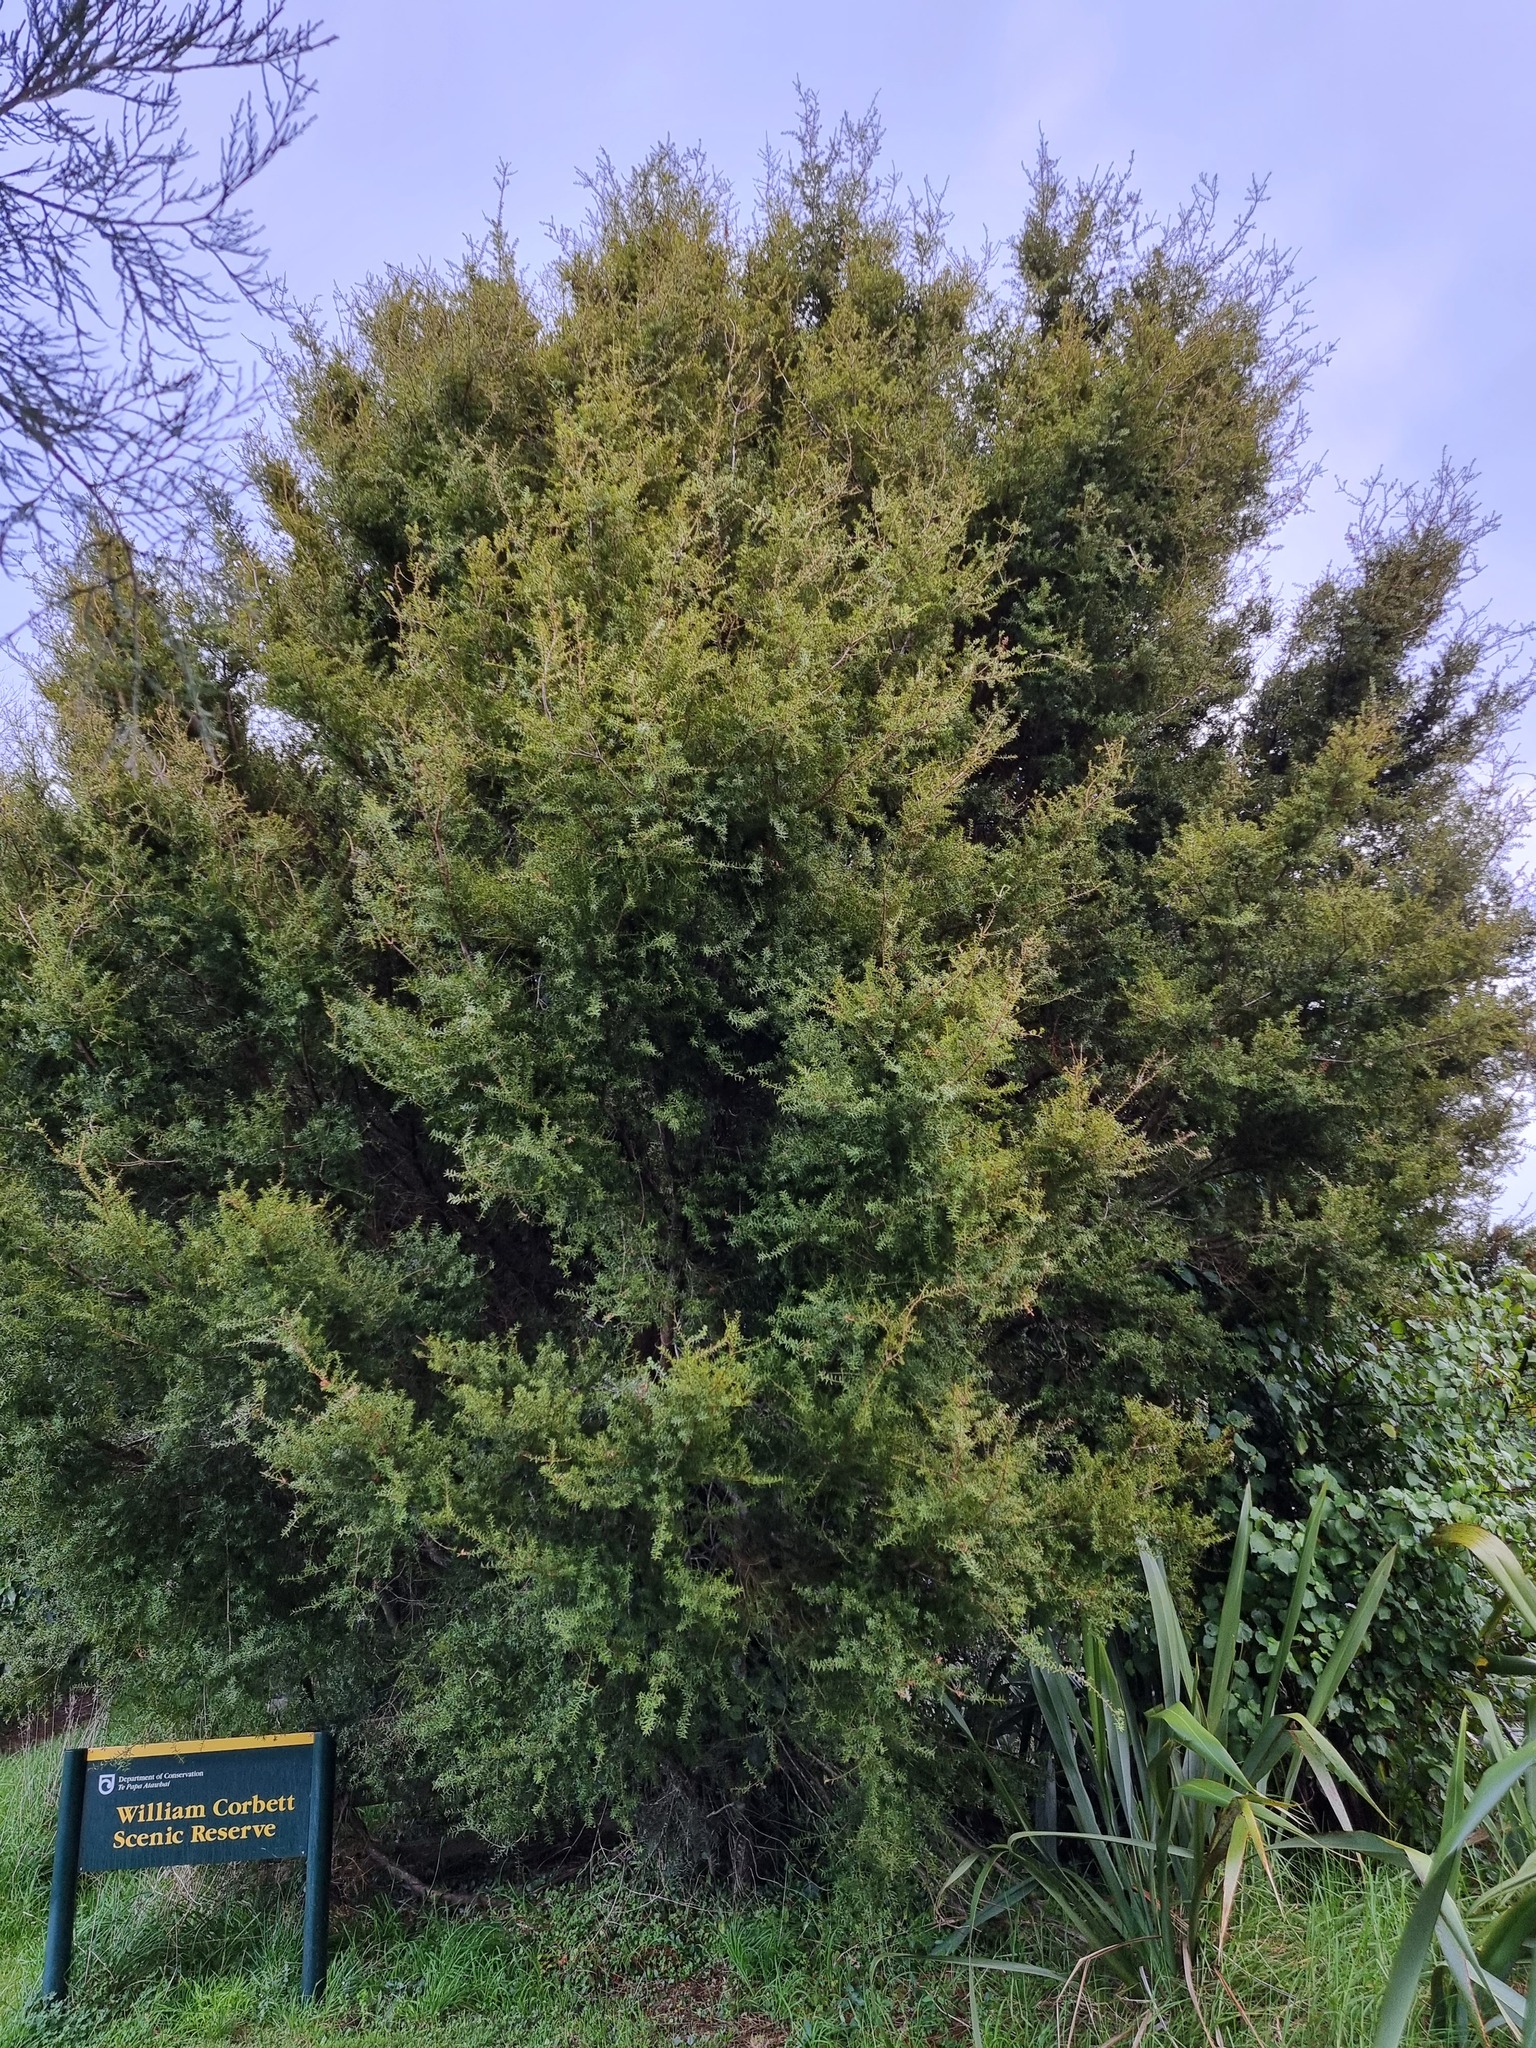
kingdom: Plantae
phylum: Tracheophyta
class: Pinopsida
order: Pinales
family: Podocarpaceae
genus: Podocarpus
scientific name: Podocarpus totara
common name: Totara
